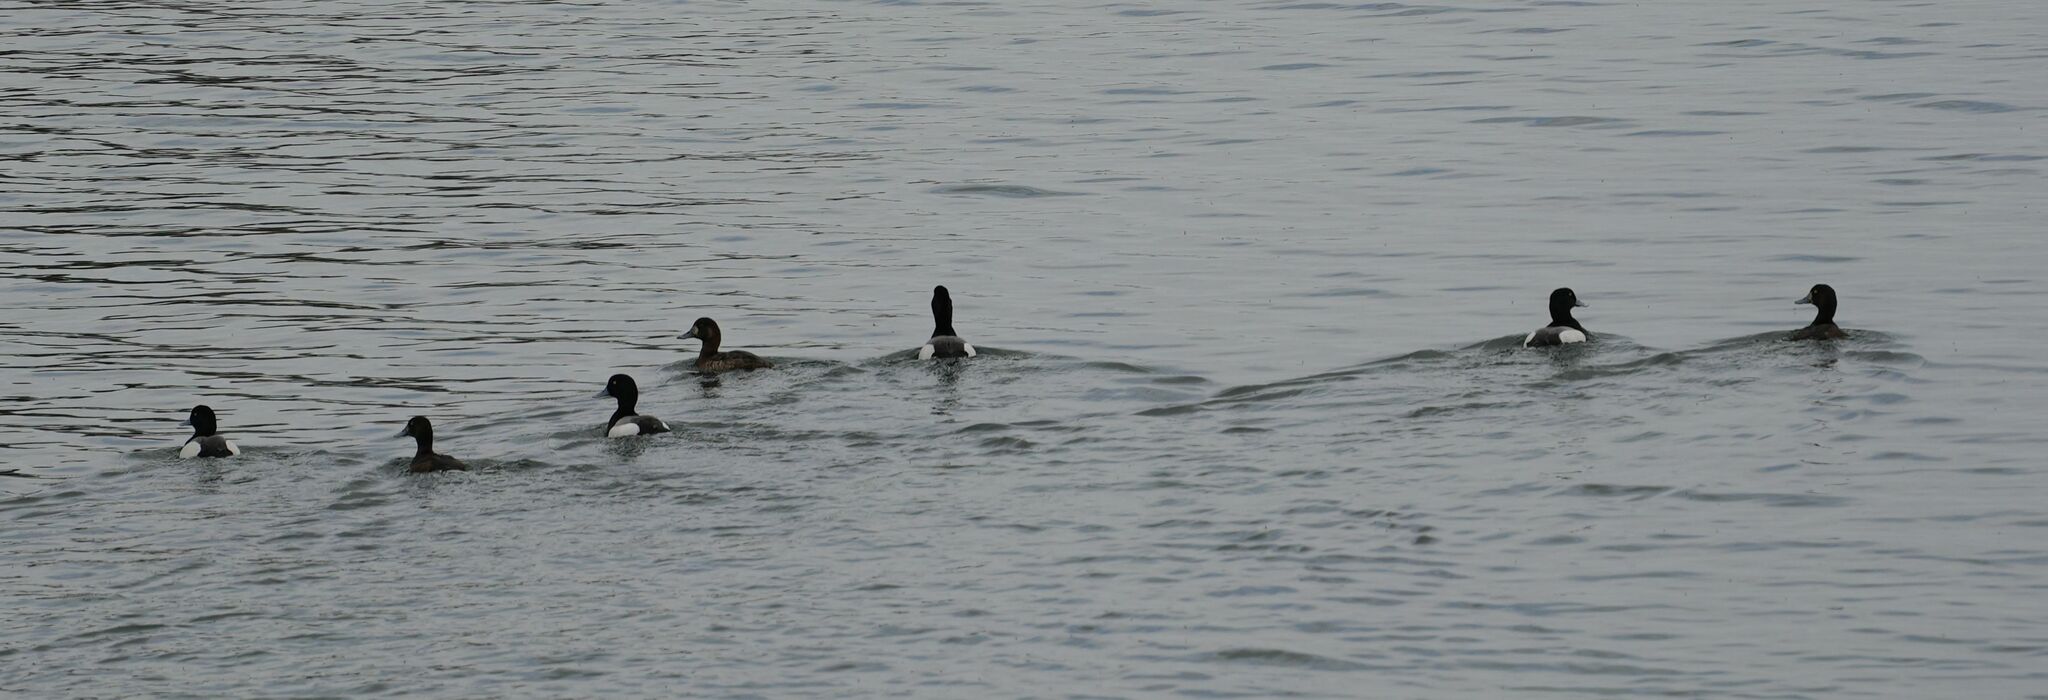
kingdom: Animalia
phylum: Chordata
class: Aves
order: Anseriformes
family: Anatidae
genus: Aythya
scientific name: Aythya marila
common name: Greater scaup
